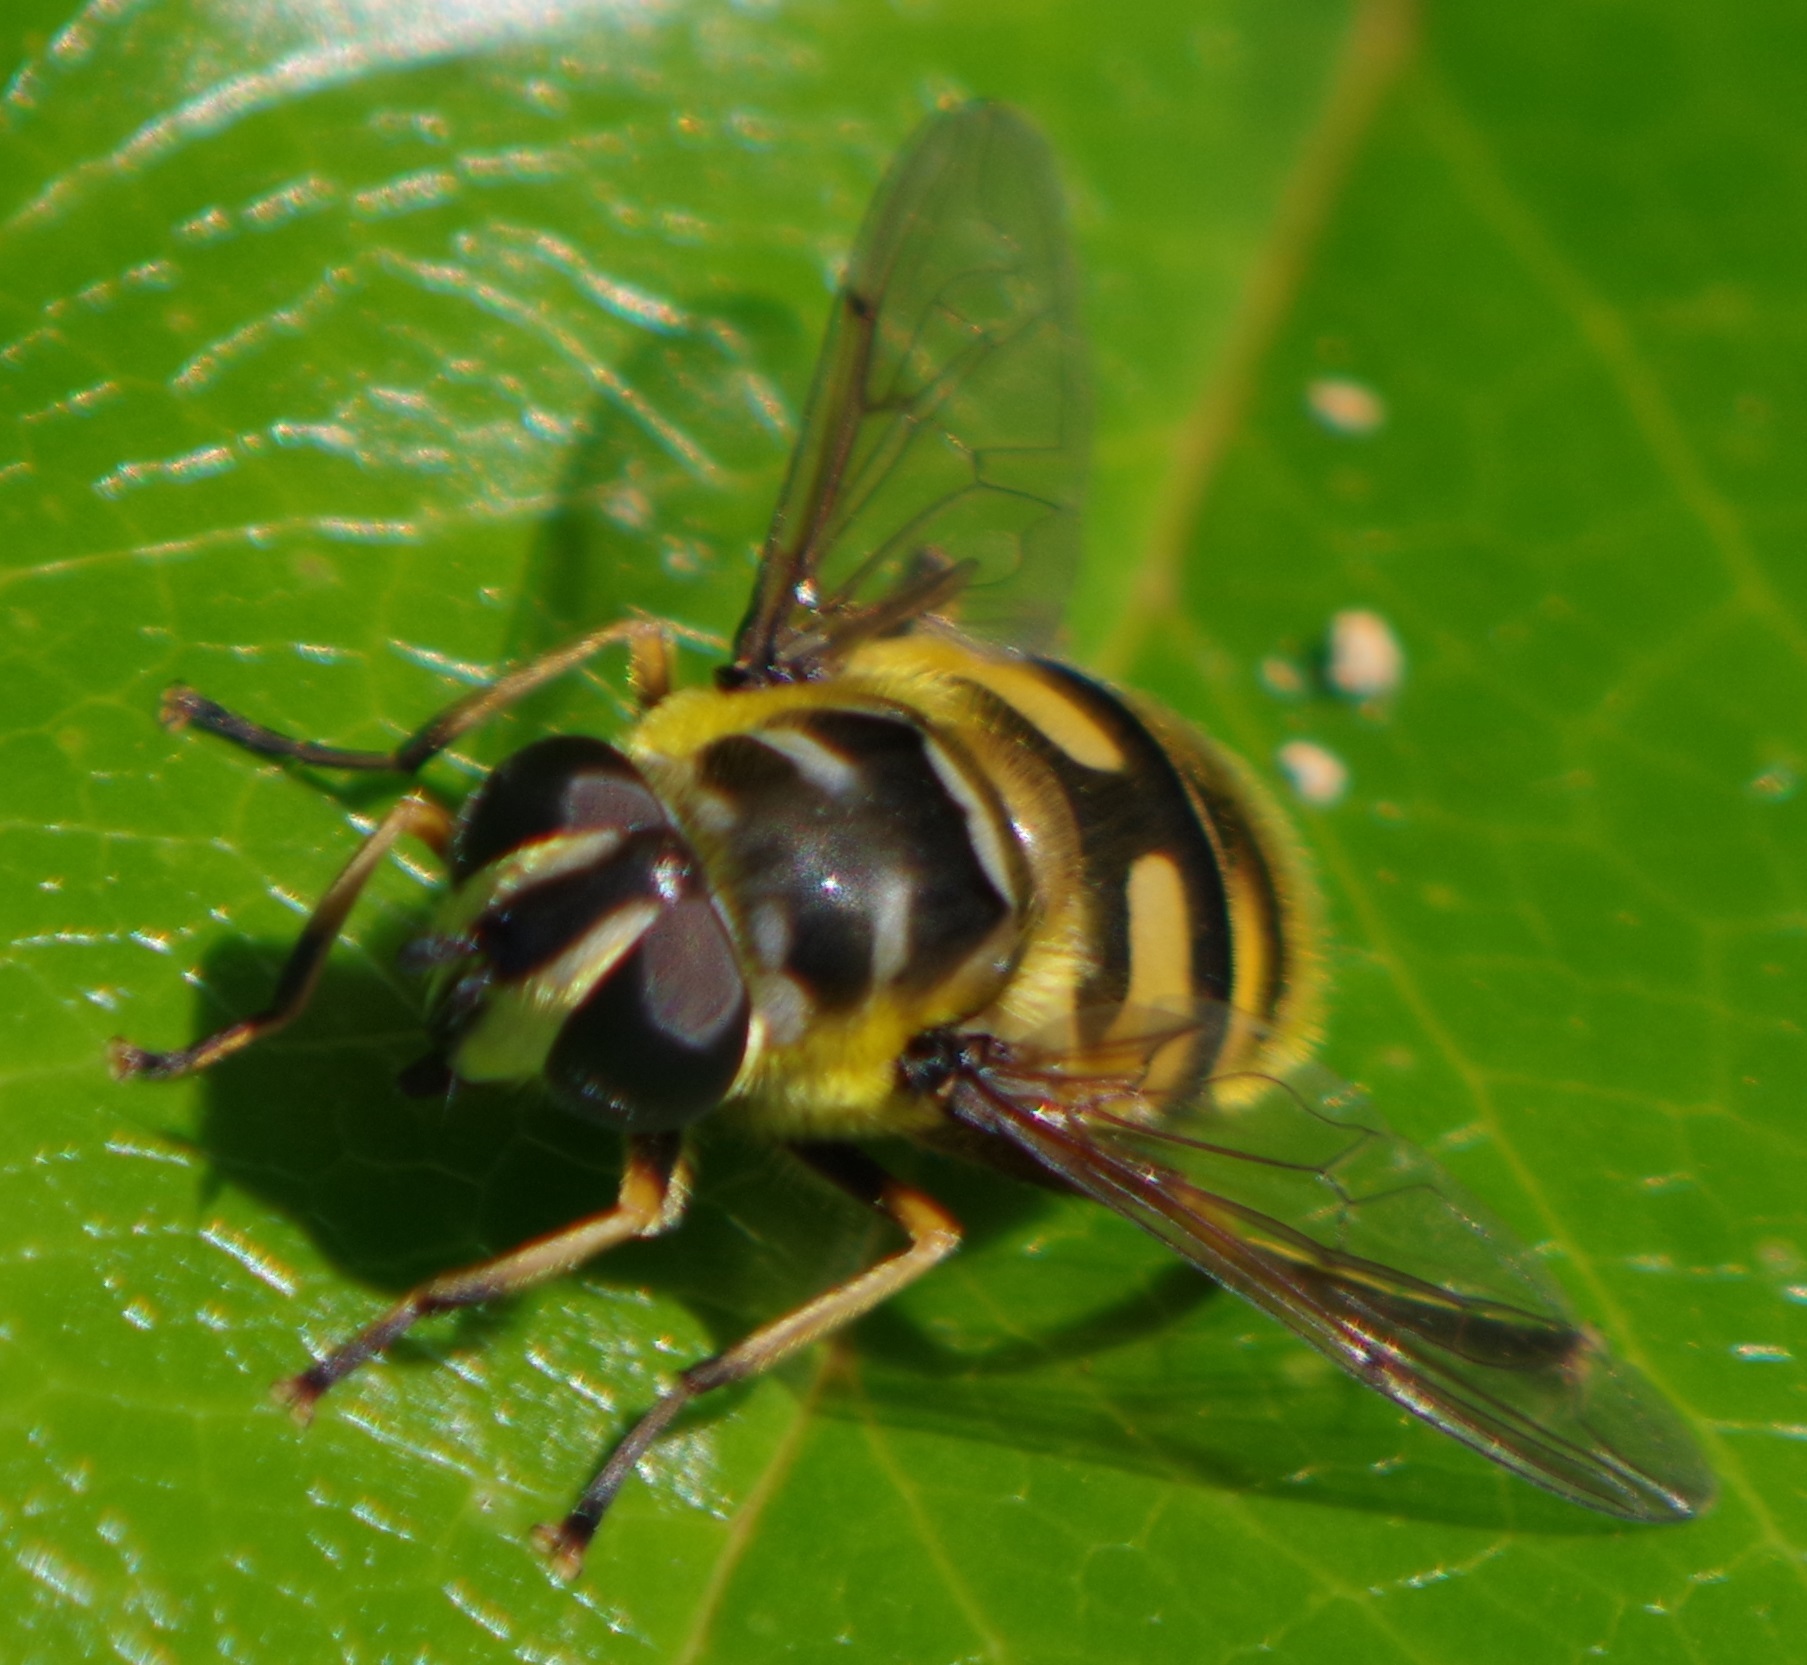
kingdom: Animalia
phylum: Arthropoda
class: Insecta
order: Diptera
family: Syrphidae
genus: Myathropa
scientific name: Myathropa florea
